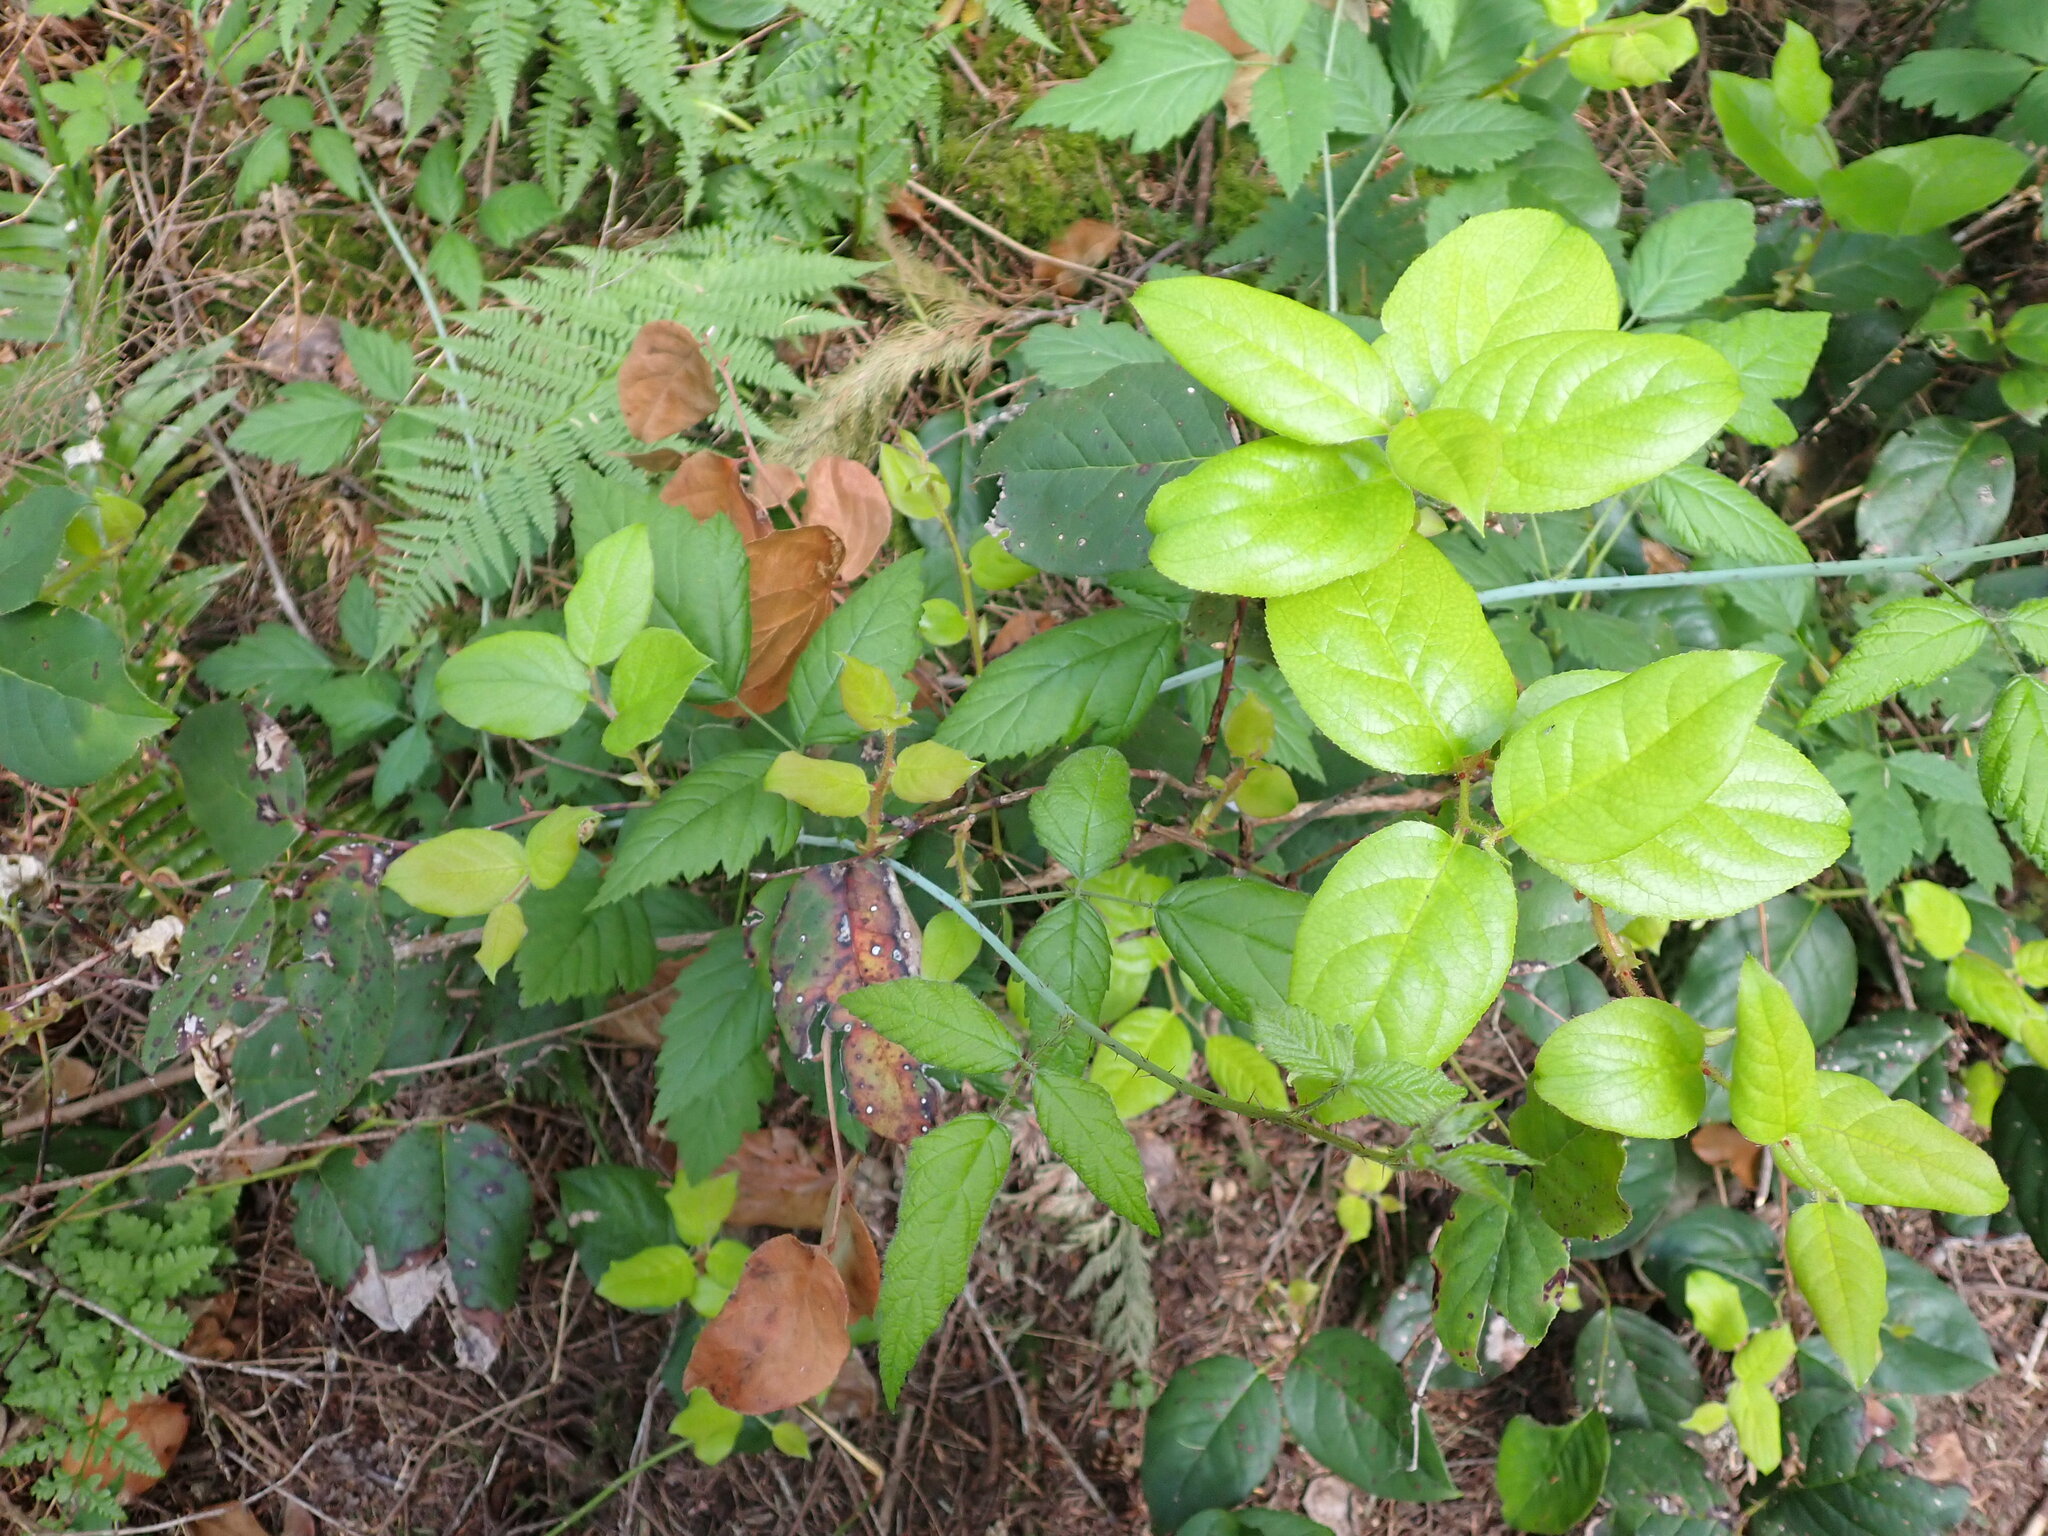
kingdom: Plantae
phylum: Tracheophyta
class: Magnoliopsida
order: Ericales
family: Ericaceae
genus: Gaultheria
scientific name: Gaultheria shallon
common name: Shallon
